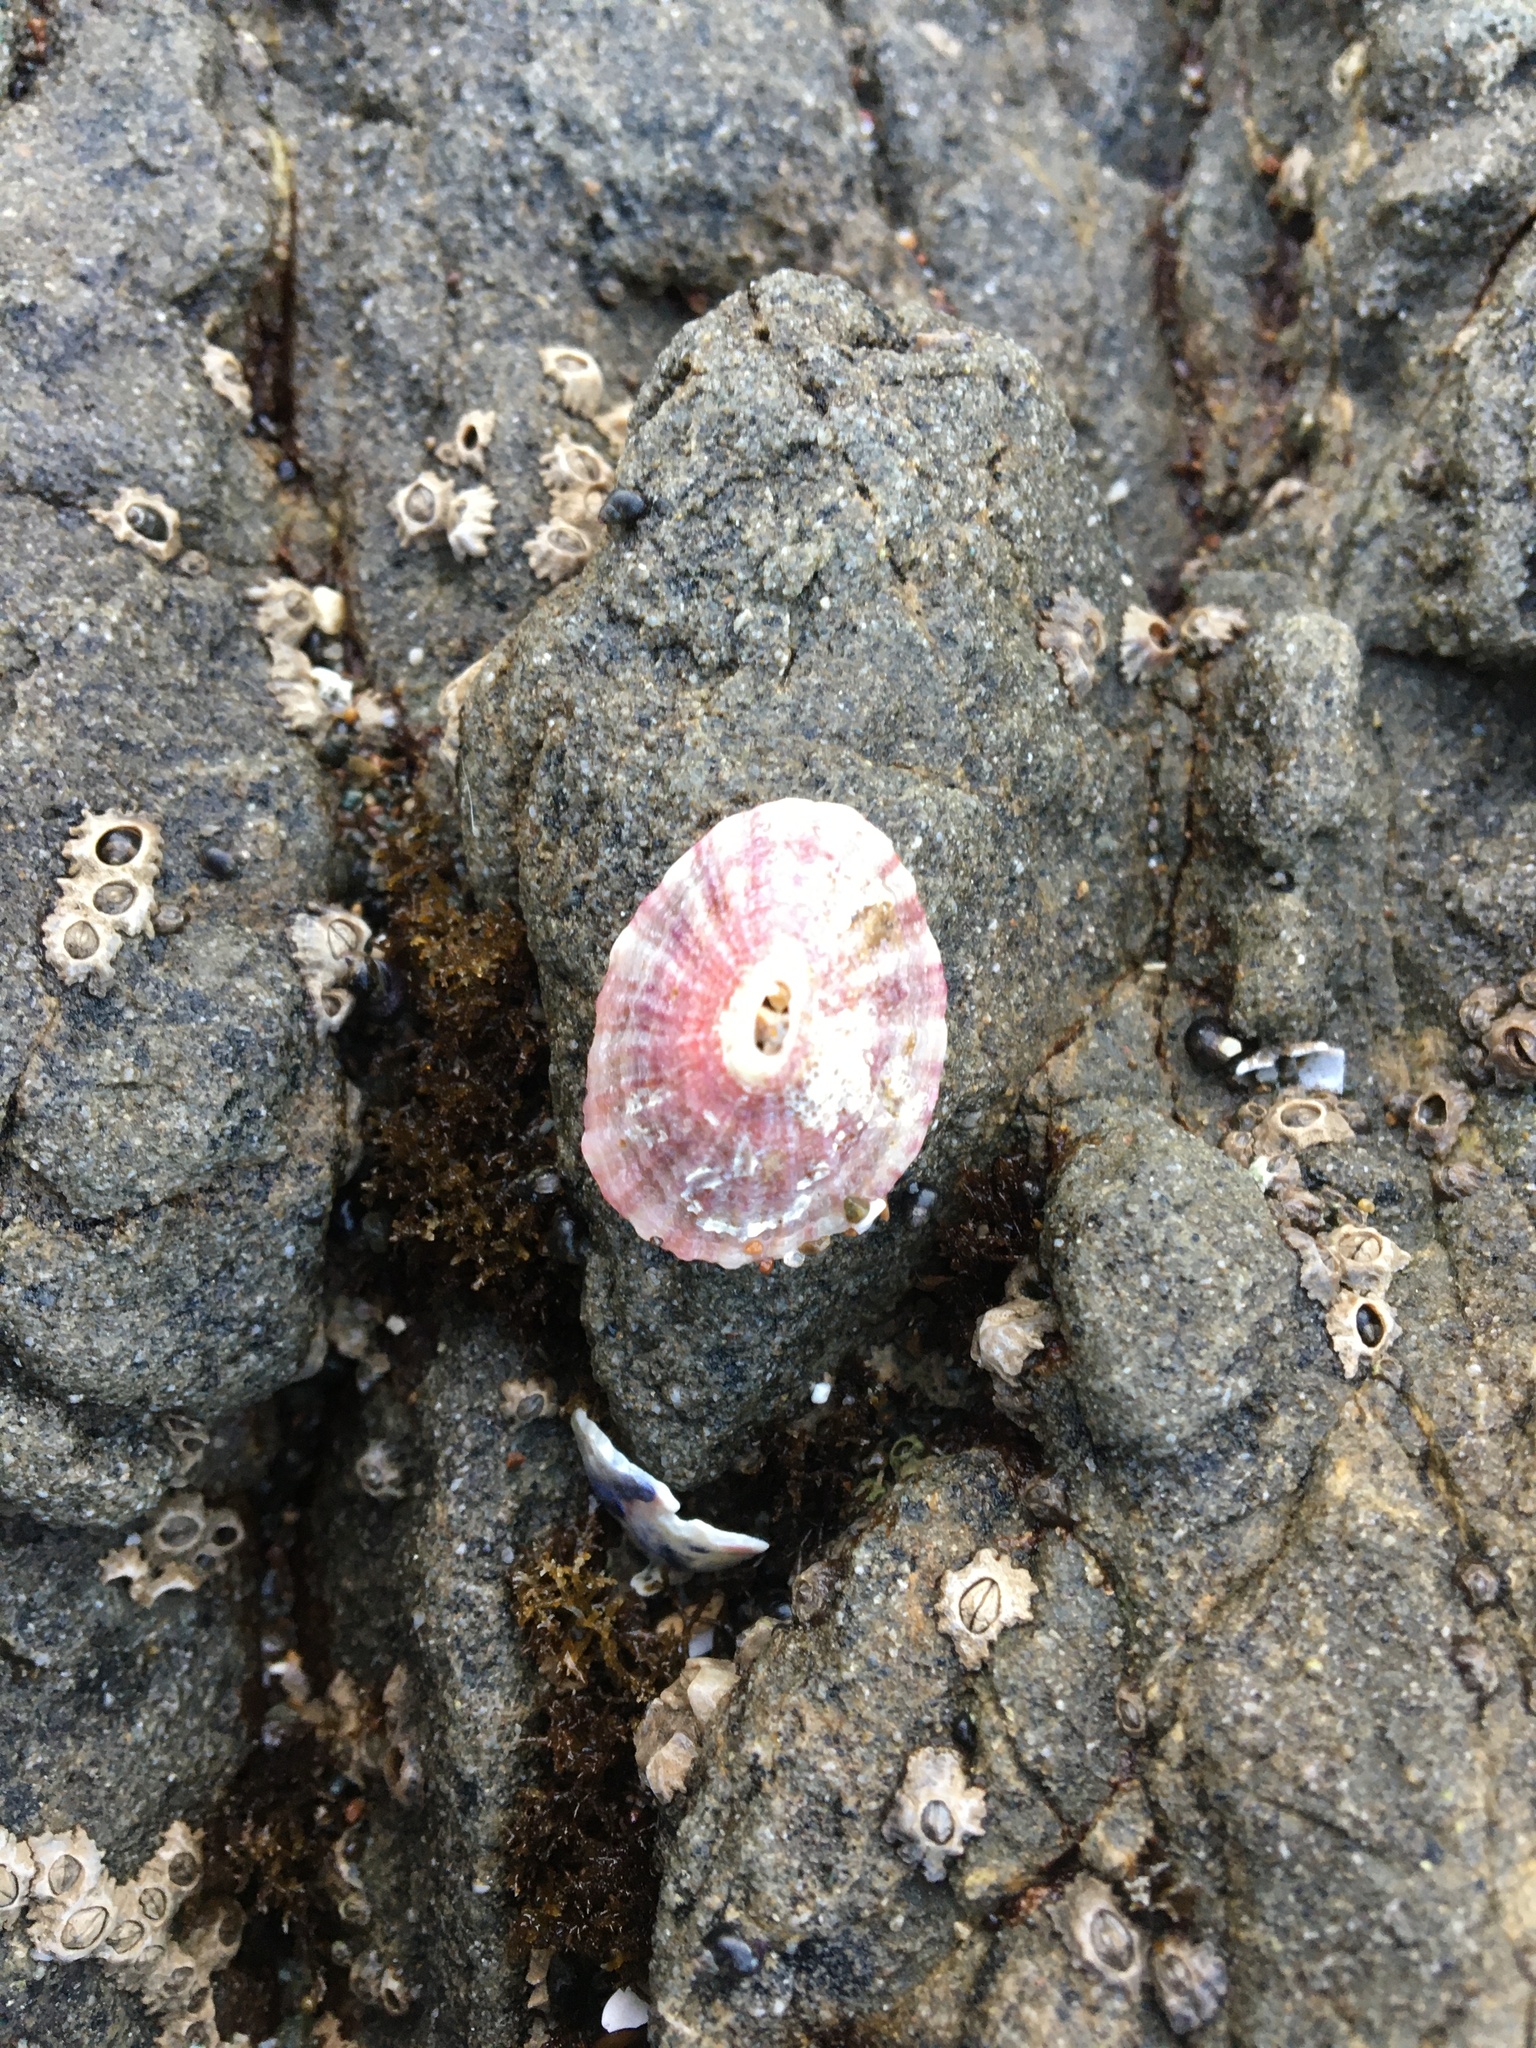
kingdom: Animalia
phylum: Mollusca
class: Gastropoda
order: Lepetellida
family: Fissurellidae
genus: Fissurella
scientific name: Fissurella volcano
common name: Volcano keyhole limpet
